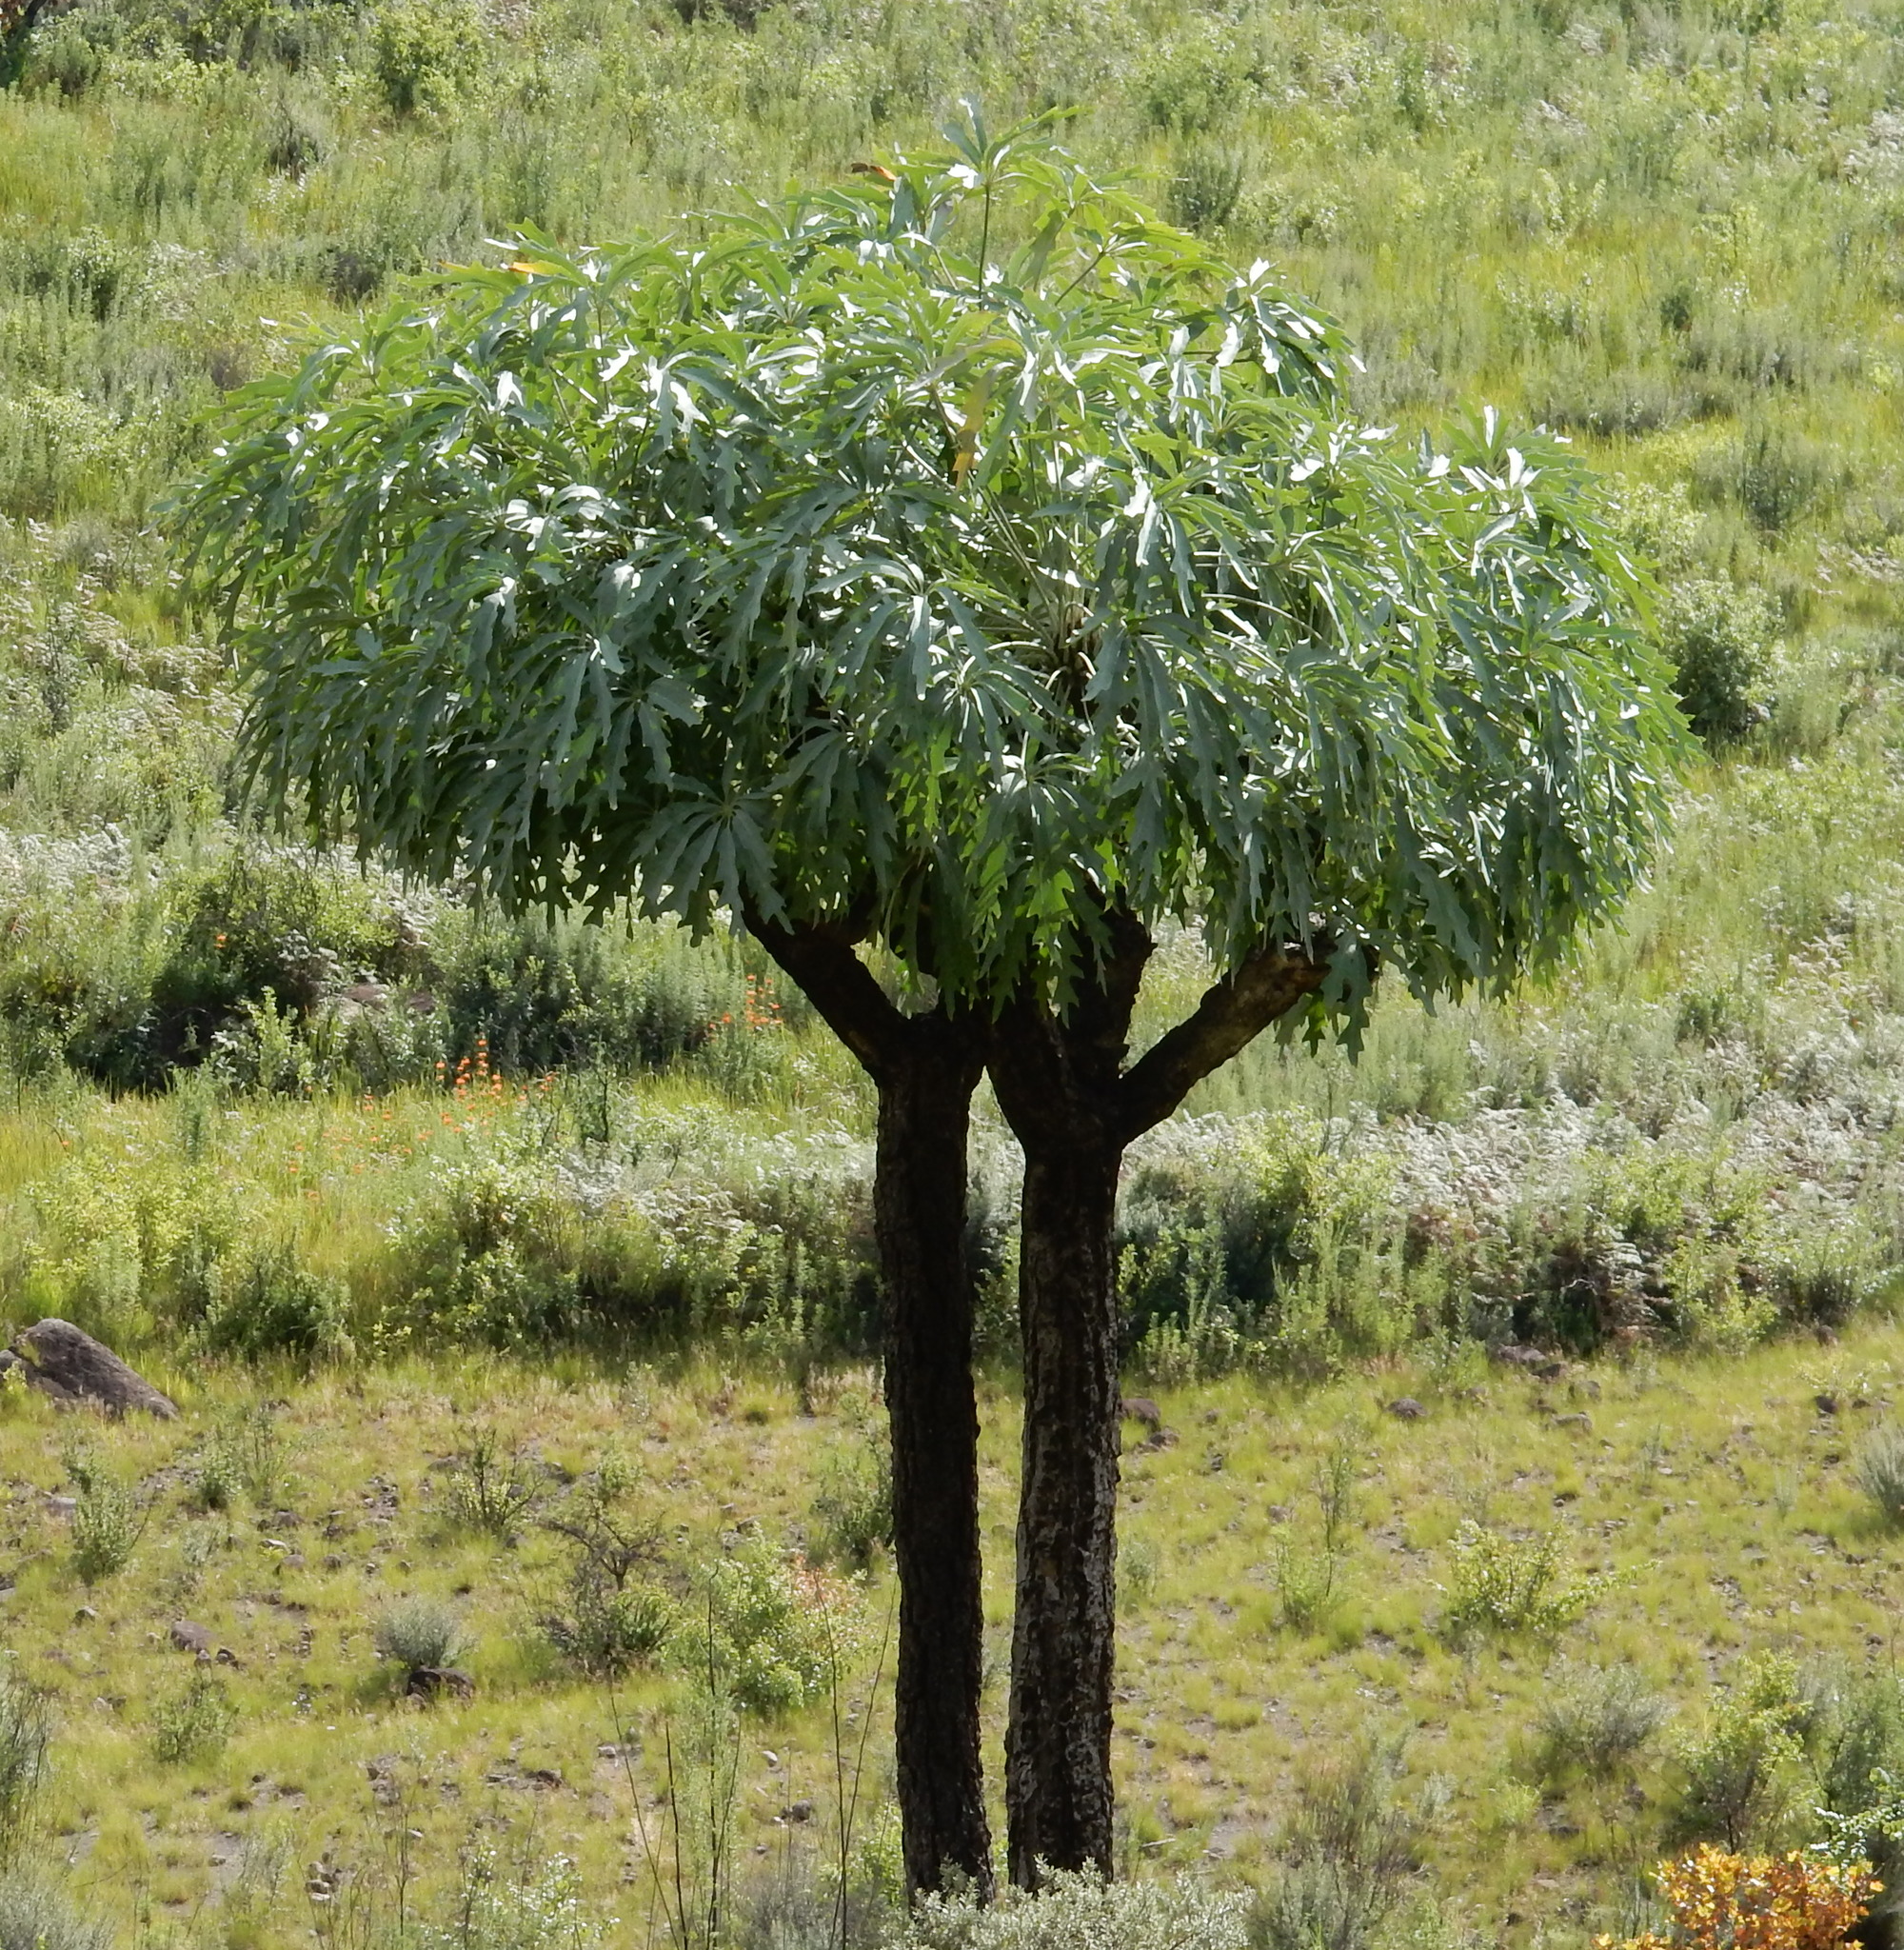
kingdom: Plantae
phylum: Tracheophyta
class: Magnoliopsida
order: Apiales
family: Araliaceae
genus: Cussonia
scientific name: Cussonia paniculata
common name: Cabbagetree
